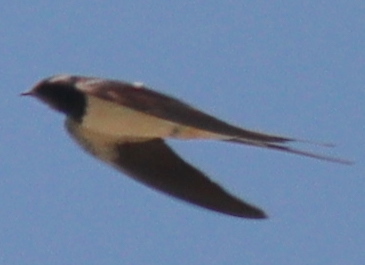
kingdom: Animalia
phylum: Chordata
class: Aves
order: Passeriformes
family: Hirundinidae
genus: Hirundo
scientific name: Hirundo rustica
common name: Barn swallow
